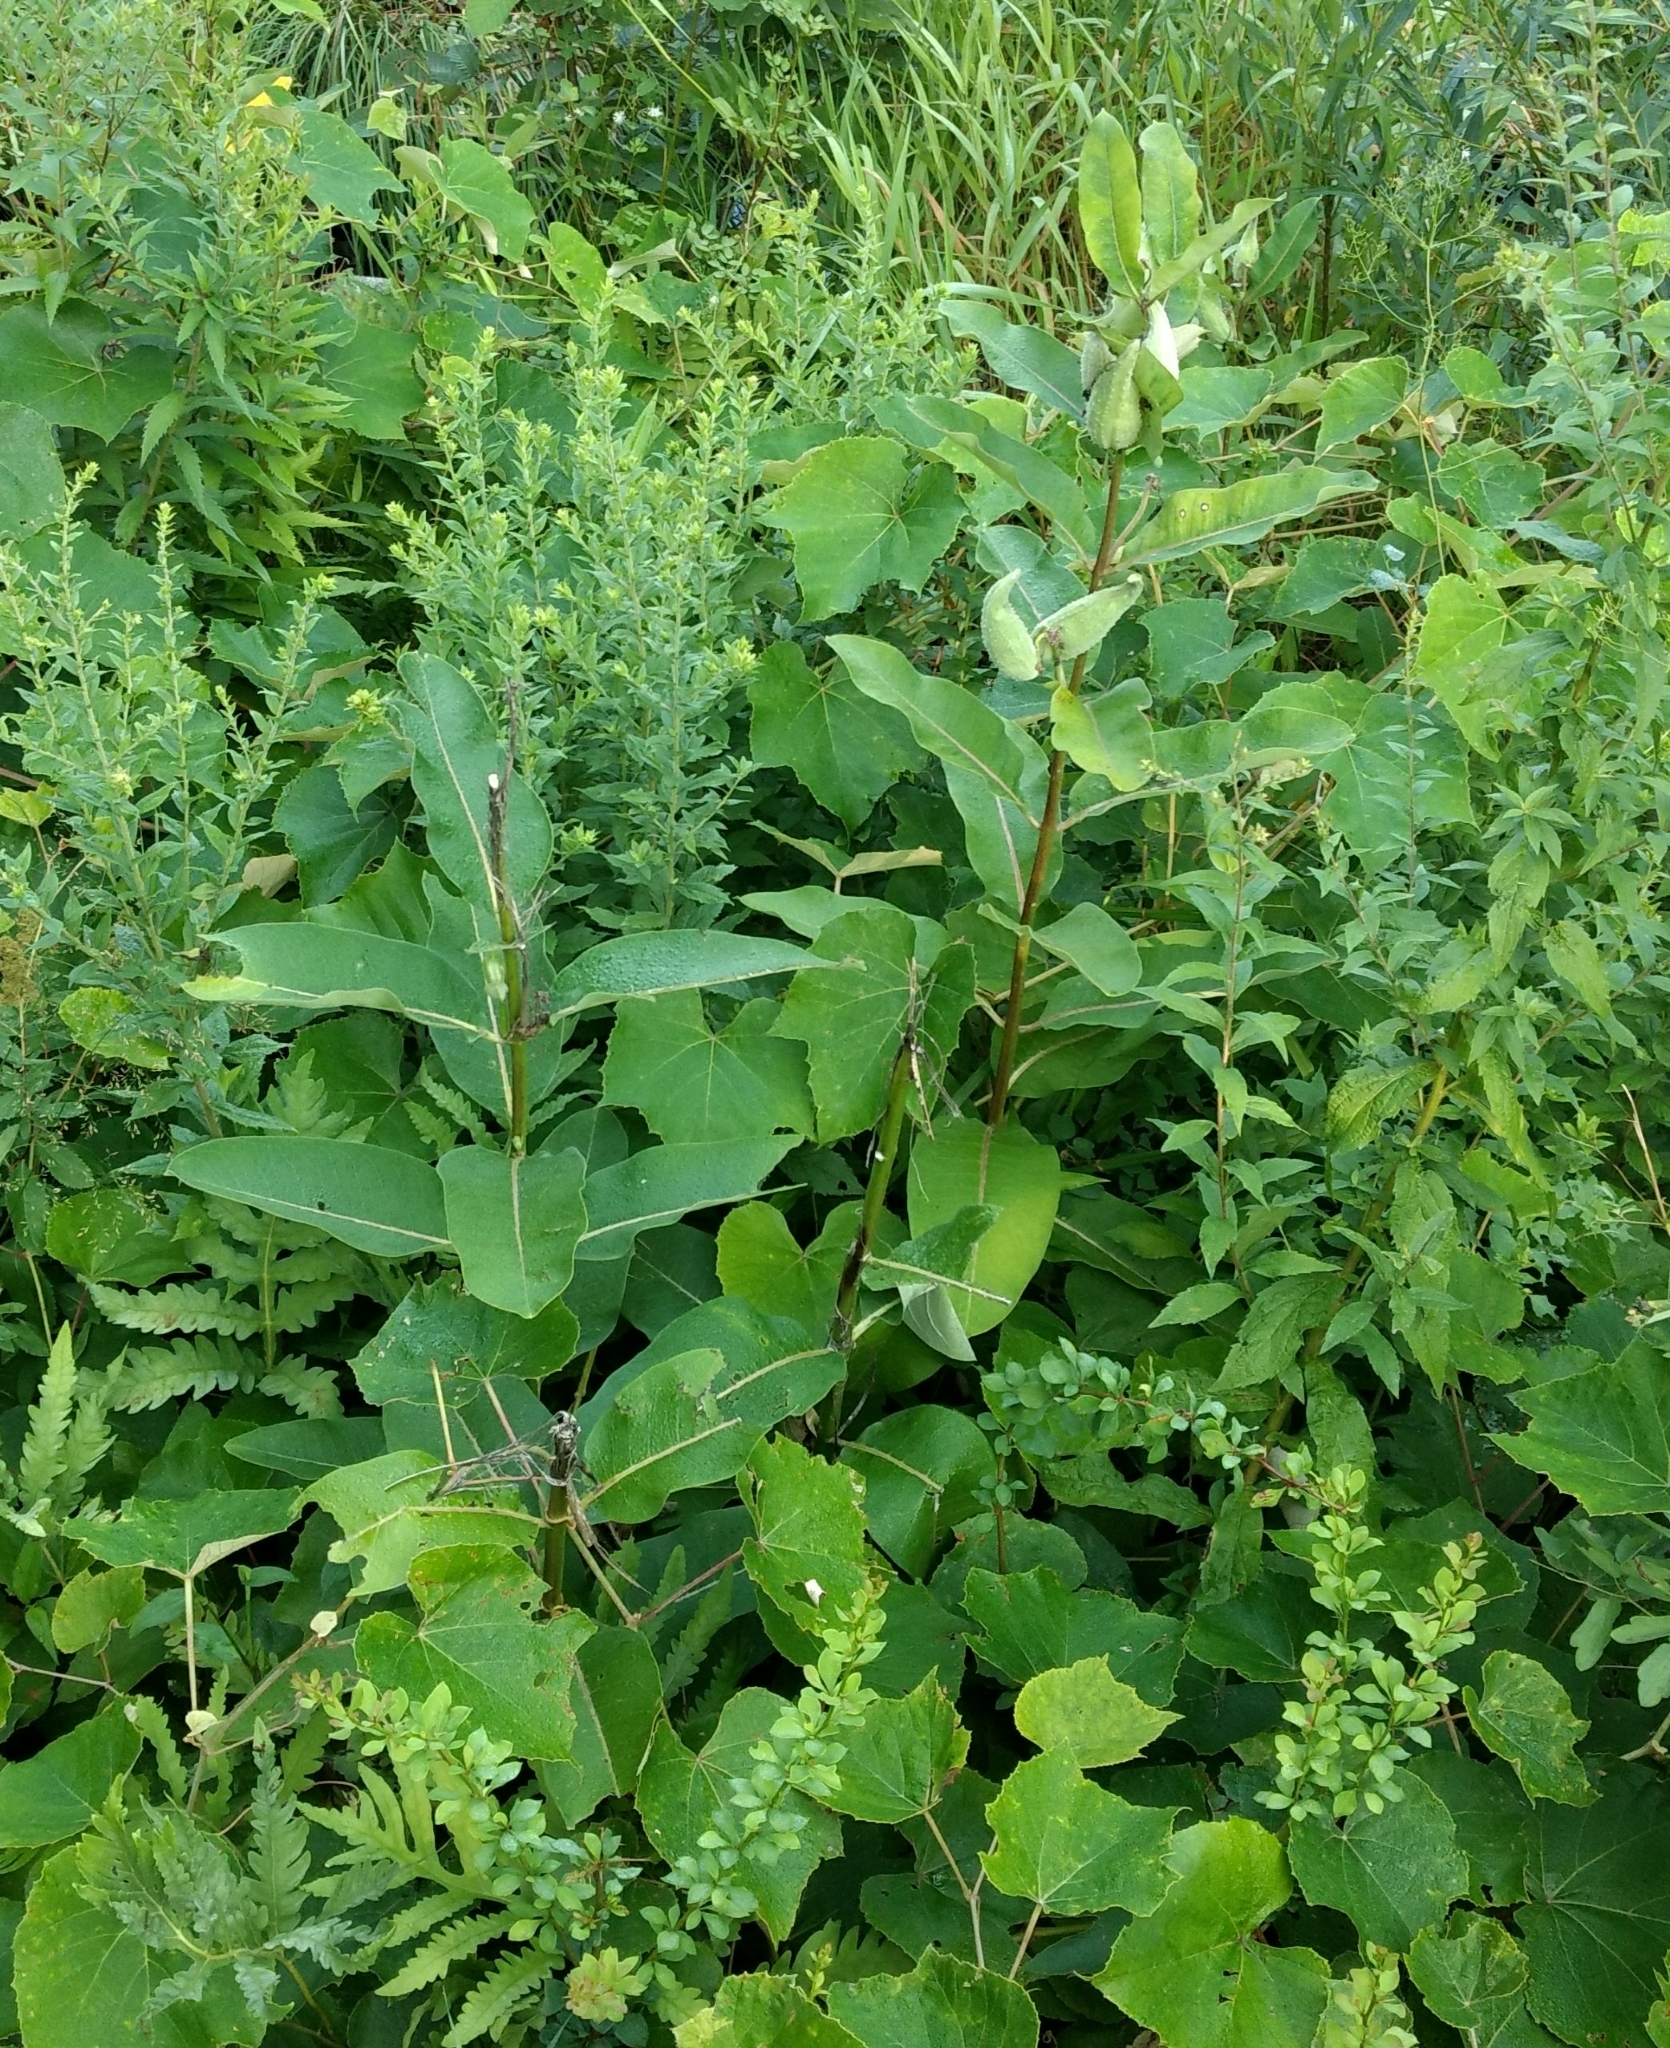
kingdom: Plantae
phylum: Tracheophyta
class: Magnoliopsida
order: Gentianales
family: Apocynaceae
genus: Asclepias
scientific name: Asclepias syriaca
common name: Common milkweed
